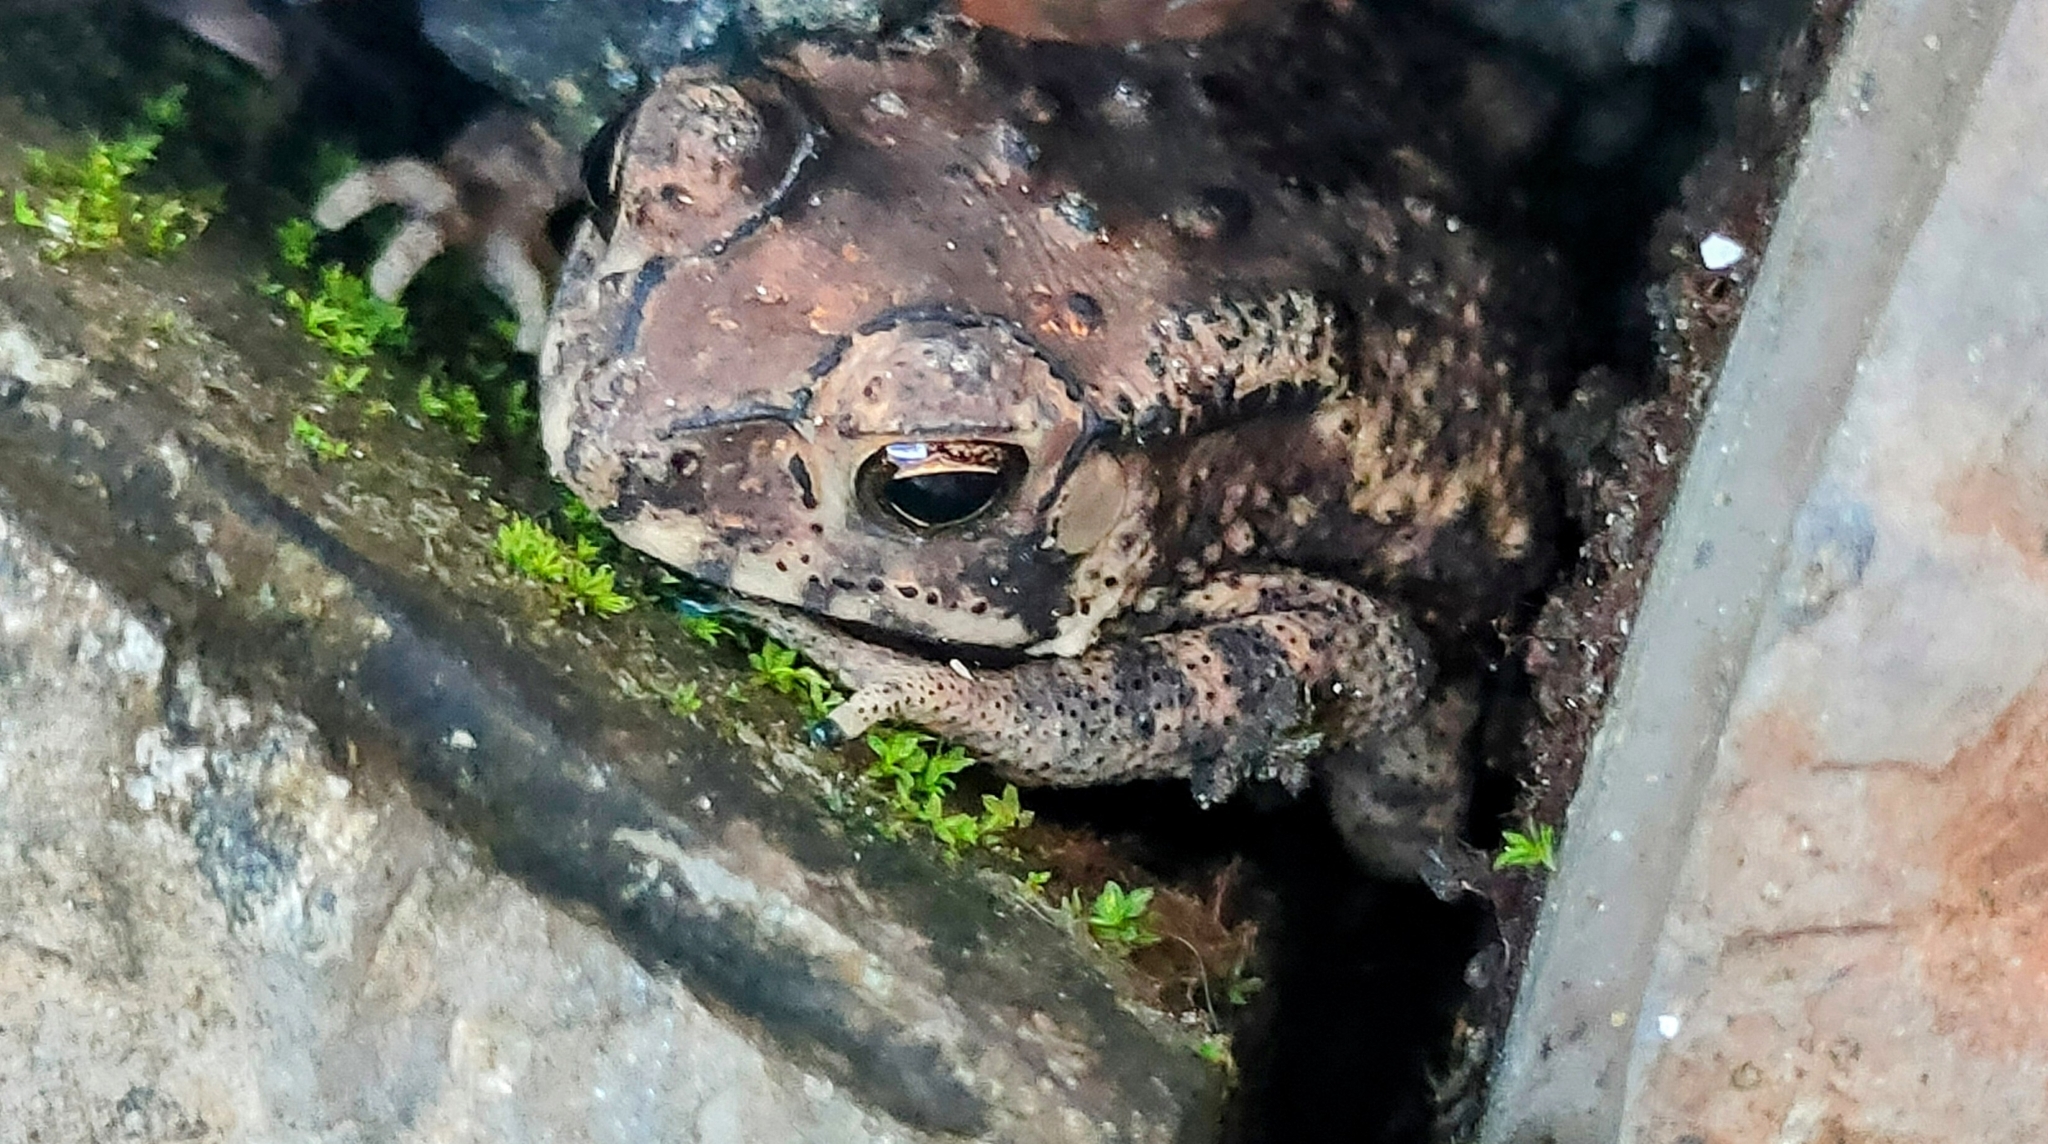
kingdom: Animalia
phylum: Chordata
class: Amphibia
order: Anura
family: Bufonidae
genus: Duttaphrynus
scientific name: Duttaphrynus melanostictus
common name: Common sunda toad
